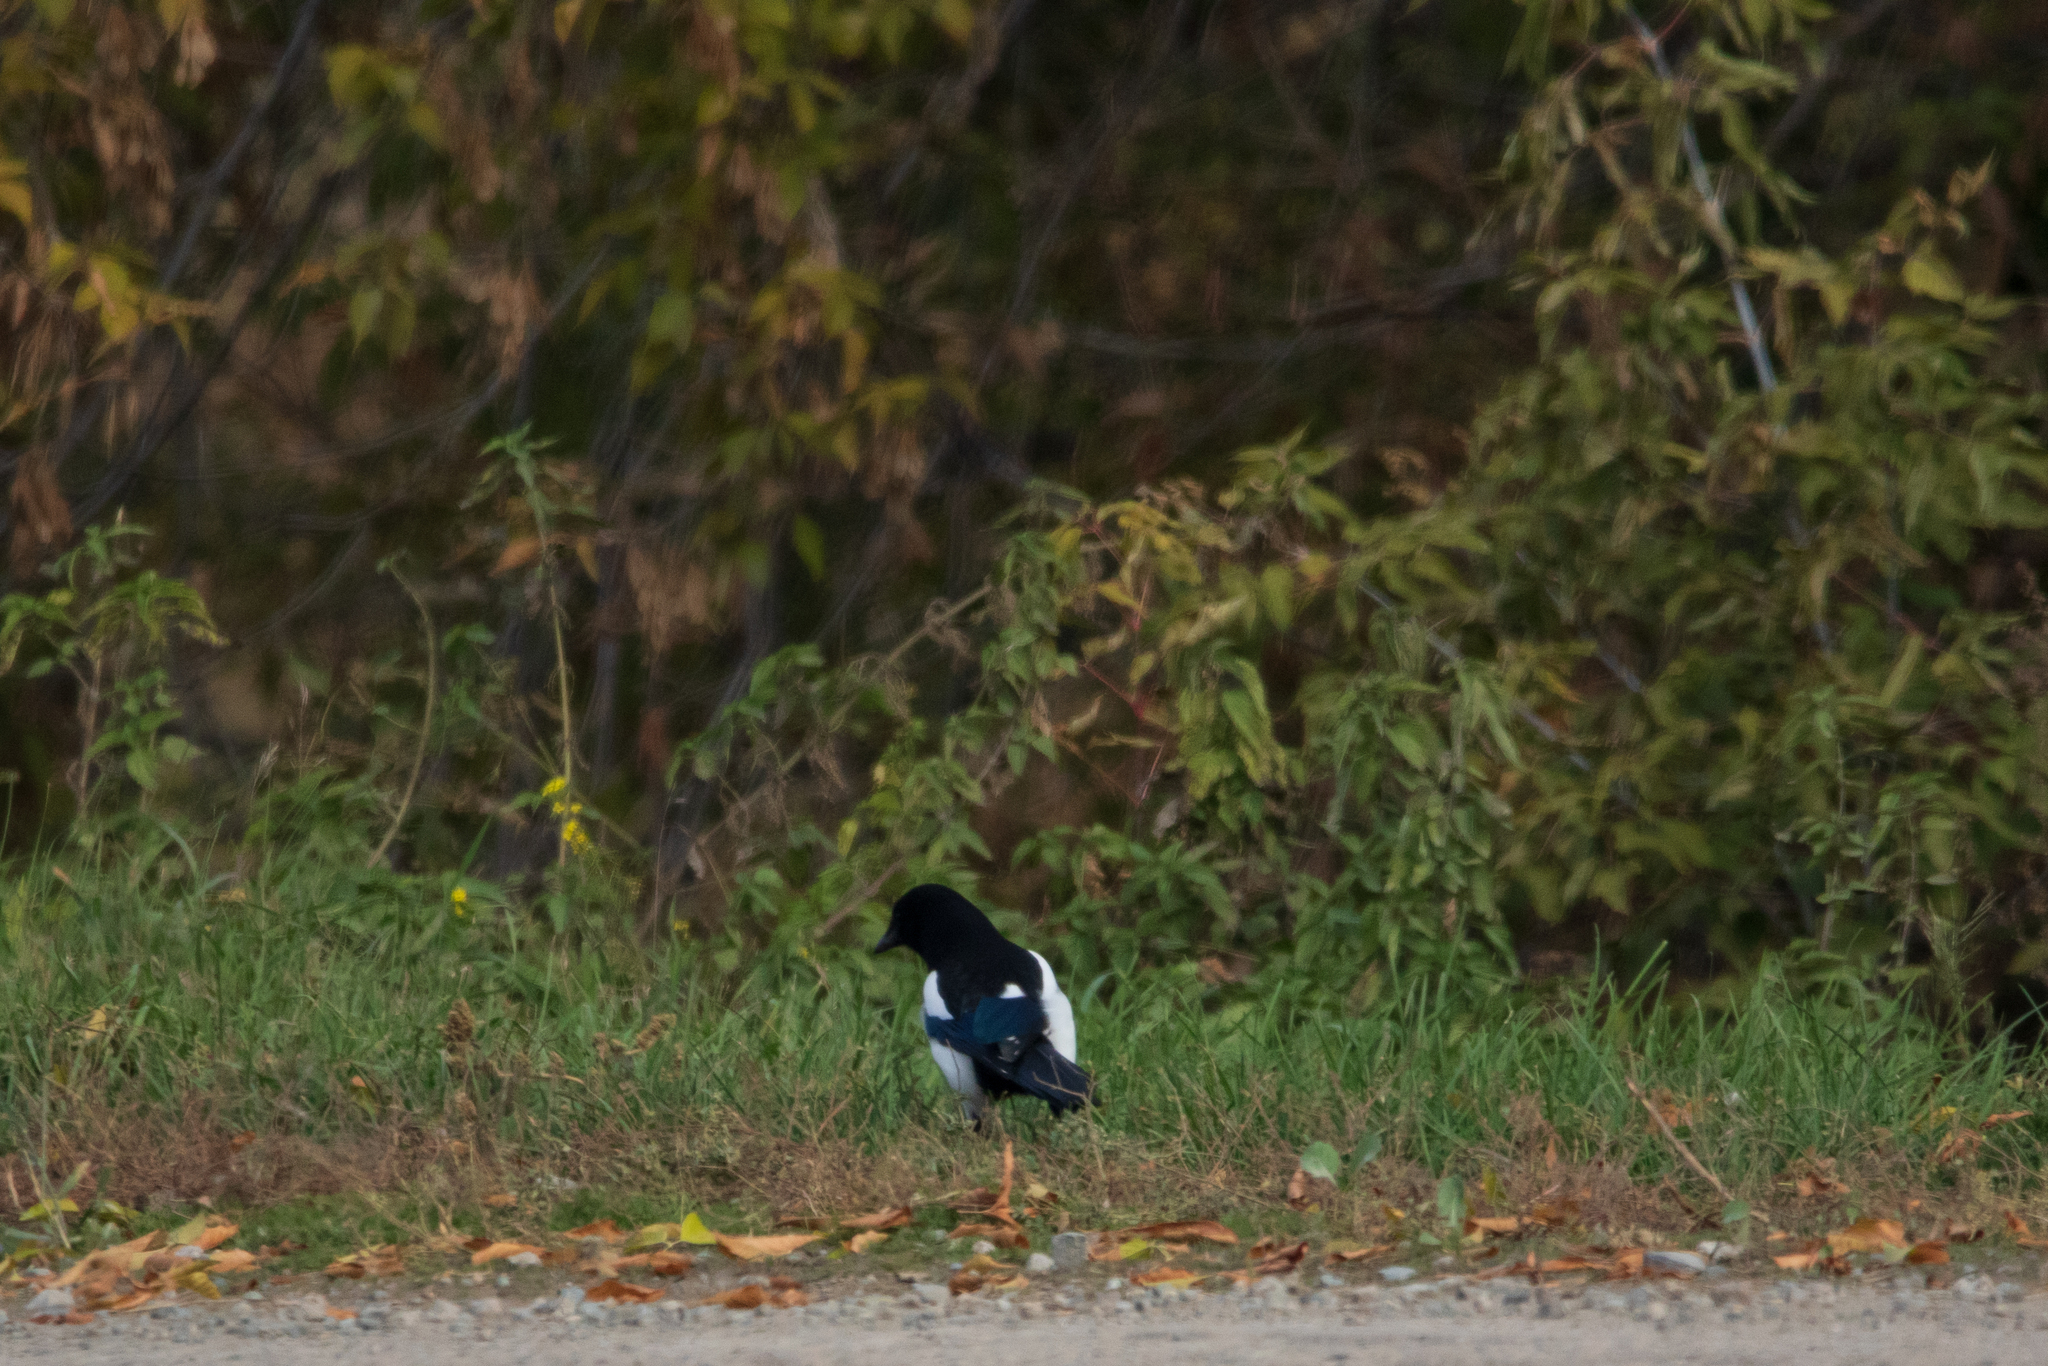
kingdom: Animalia
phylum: Chordata
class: Aves
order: Passeriformes
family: Corvidae
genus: Pica
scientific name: Pica pica
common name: Eurasian magpie
